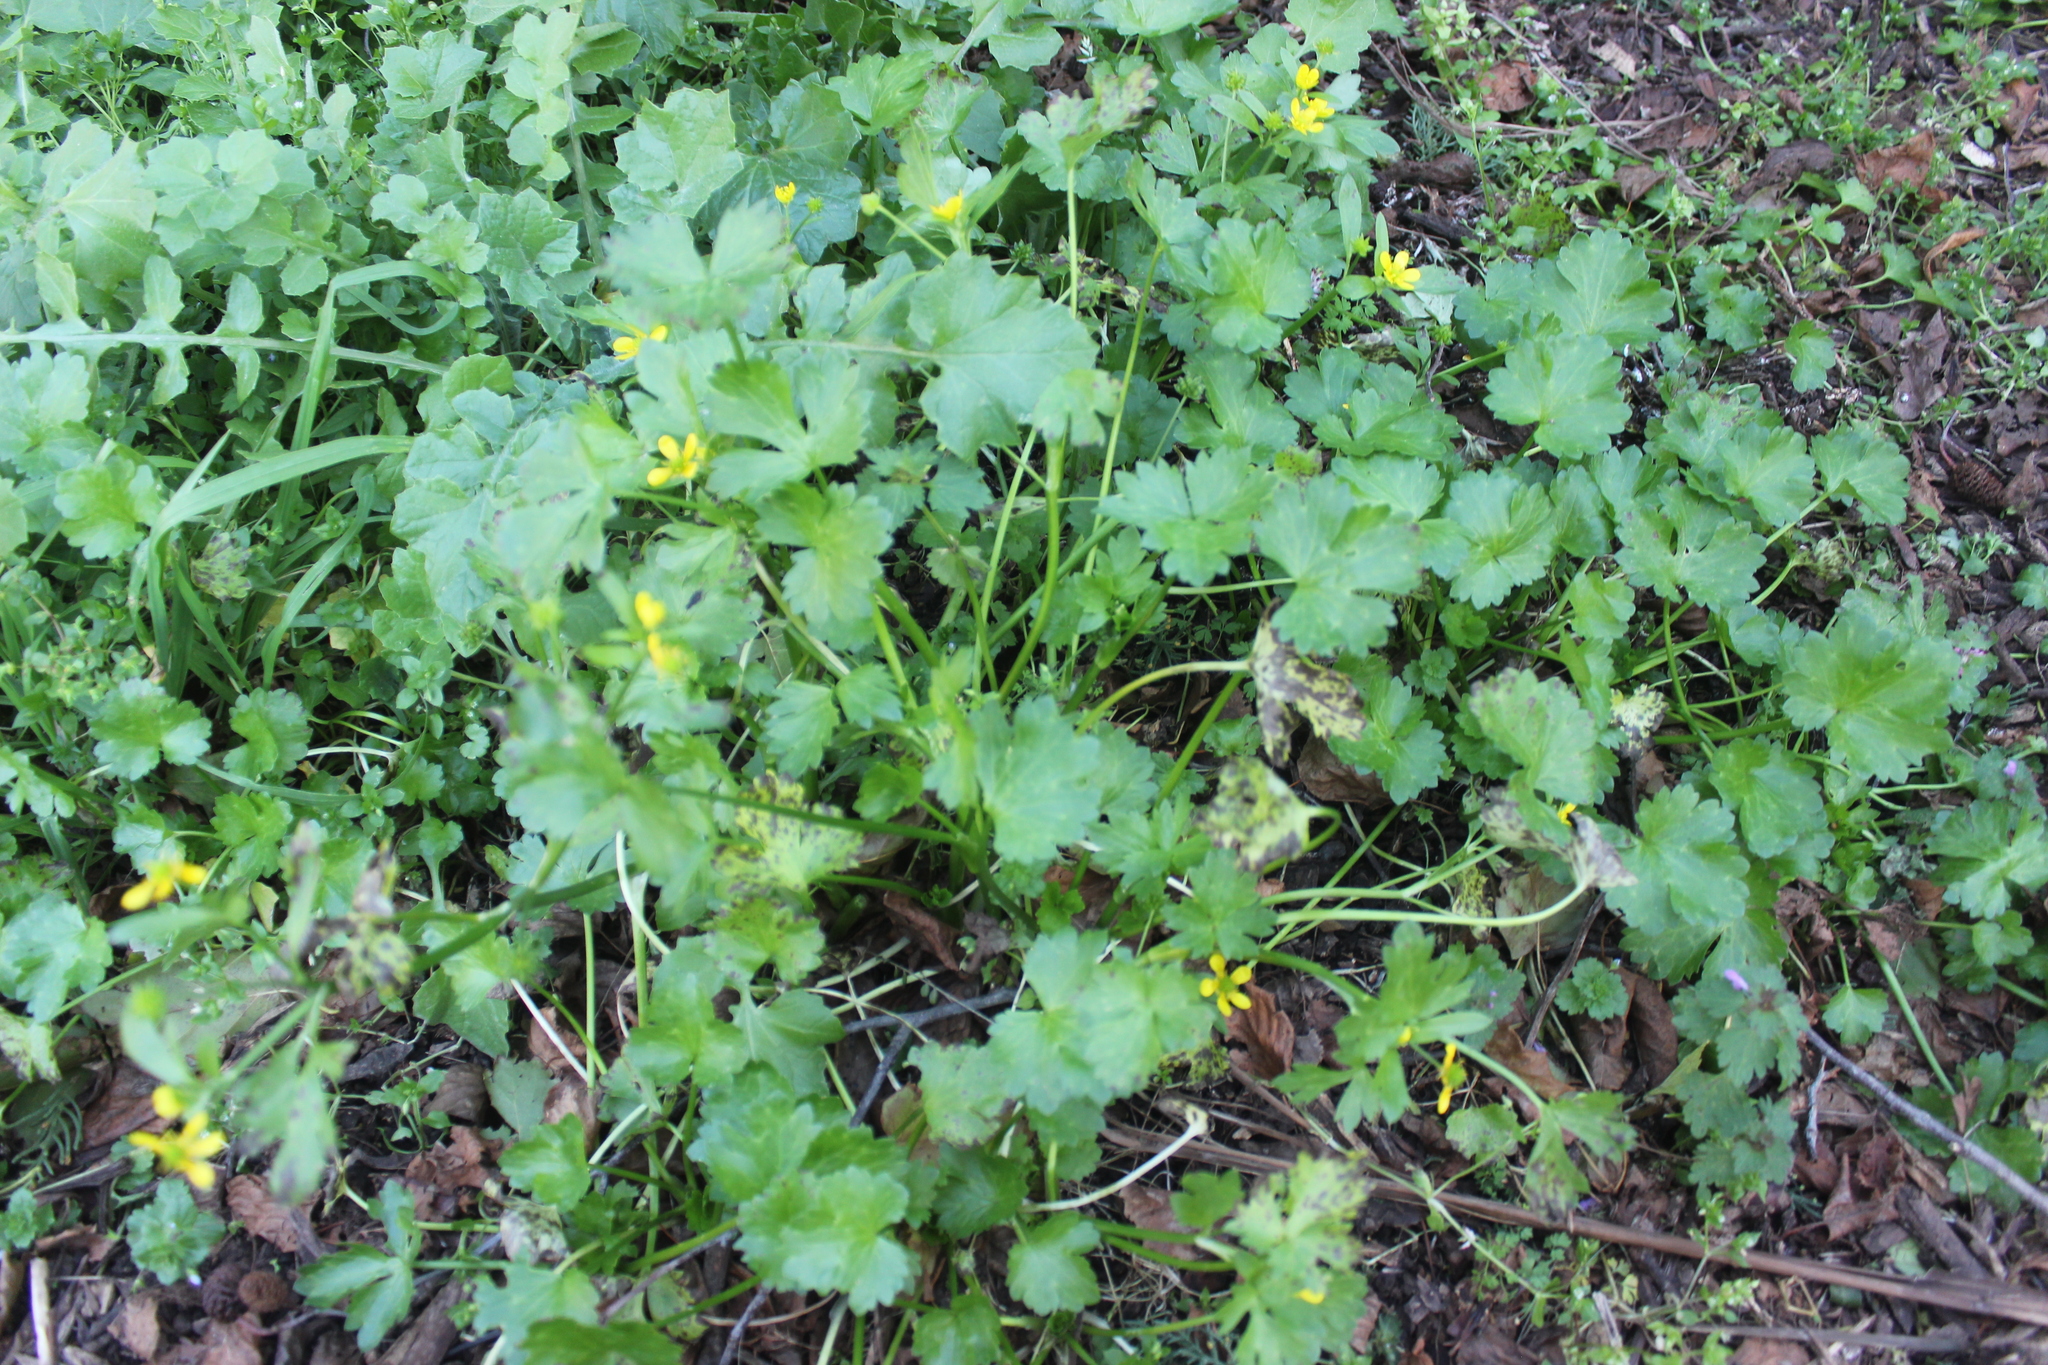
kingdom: Plantae
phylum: Tracheophyta
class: Magnoliopsida
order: Ranunculales
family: Ranunculaceae
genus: Ranunculus
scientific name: Ranunculus muricatus
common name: Rough-fruited buttercup
